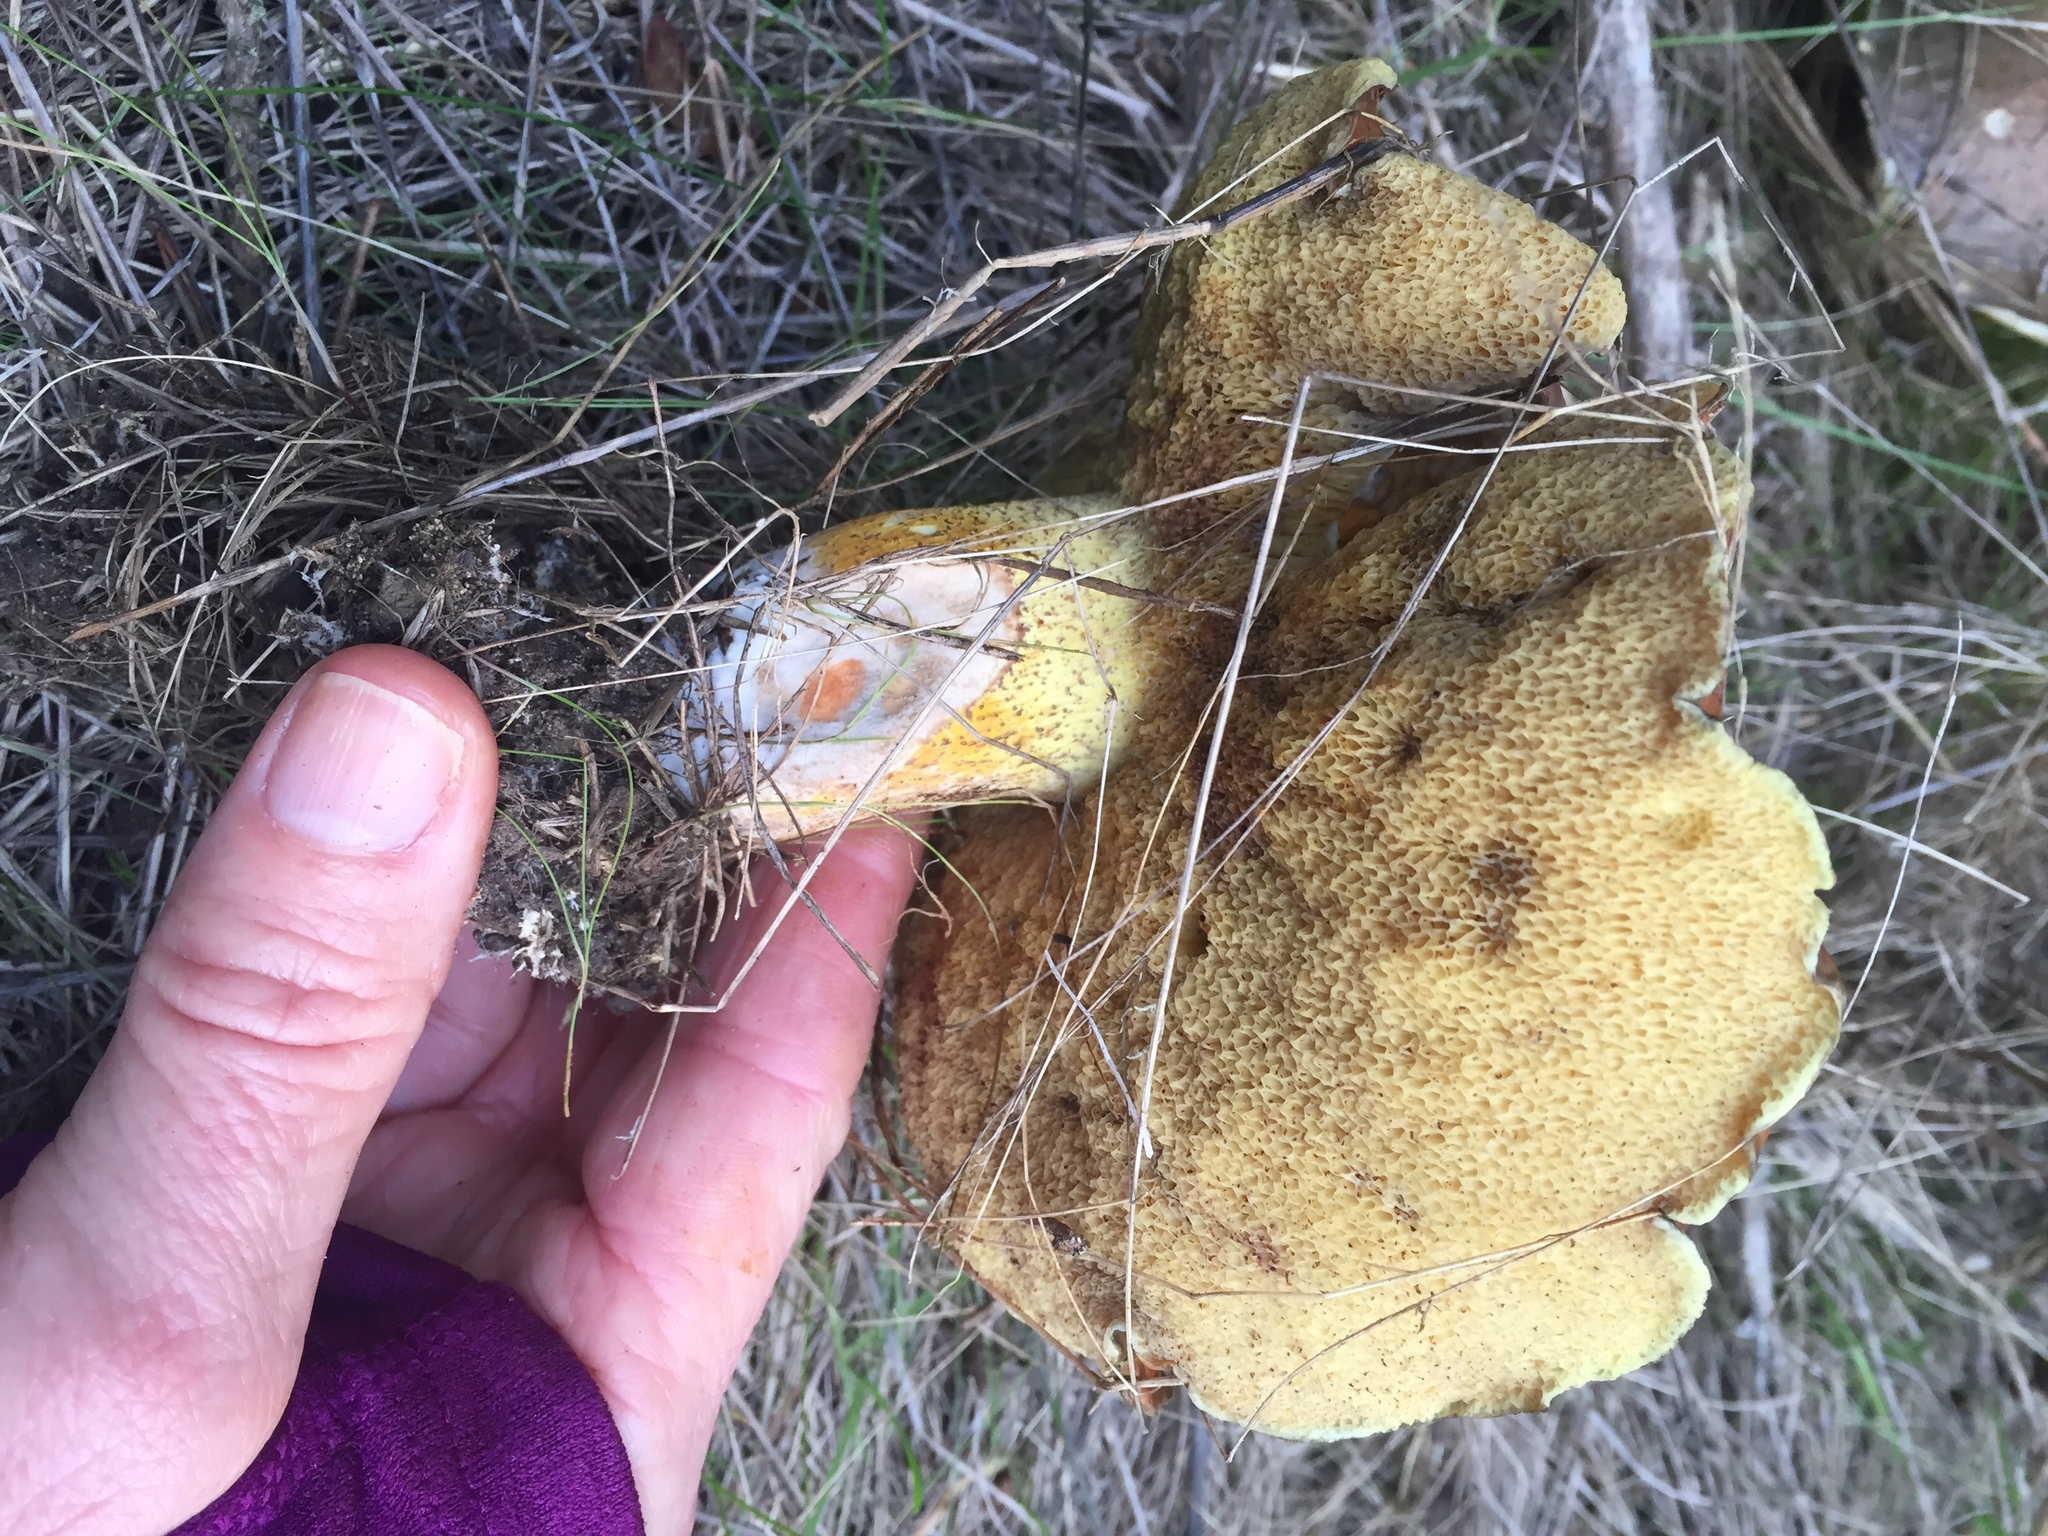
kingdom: Fungi
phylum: Basidiomycota
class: Agaricomycetes
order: Boletales
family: Suillaceae
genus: Suillus
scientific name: Suillus pungens
